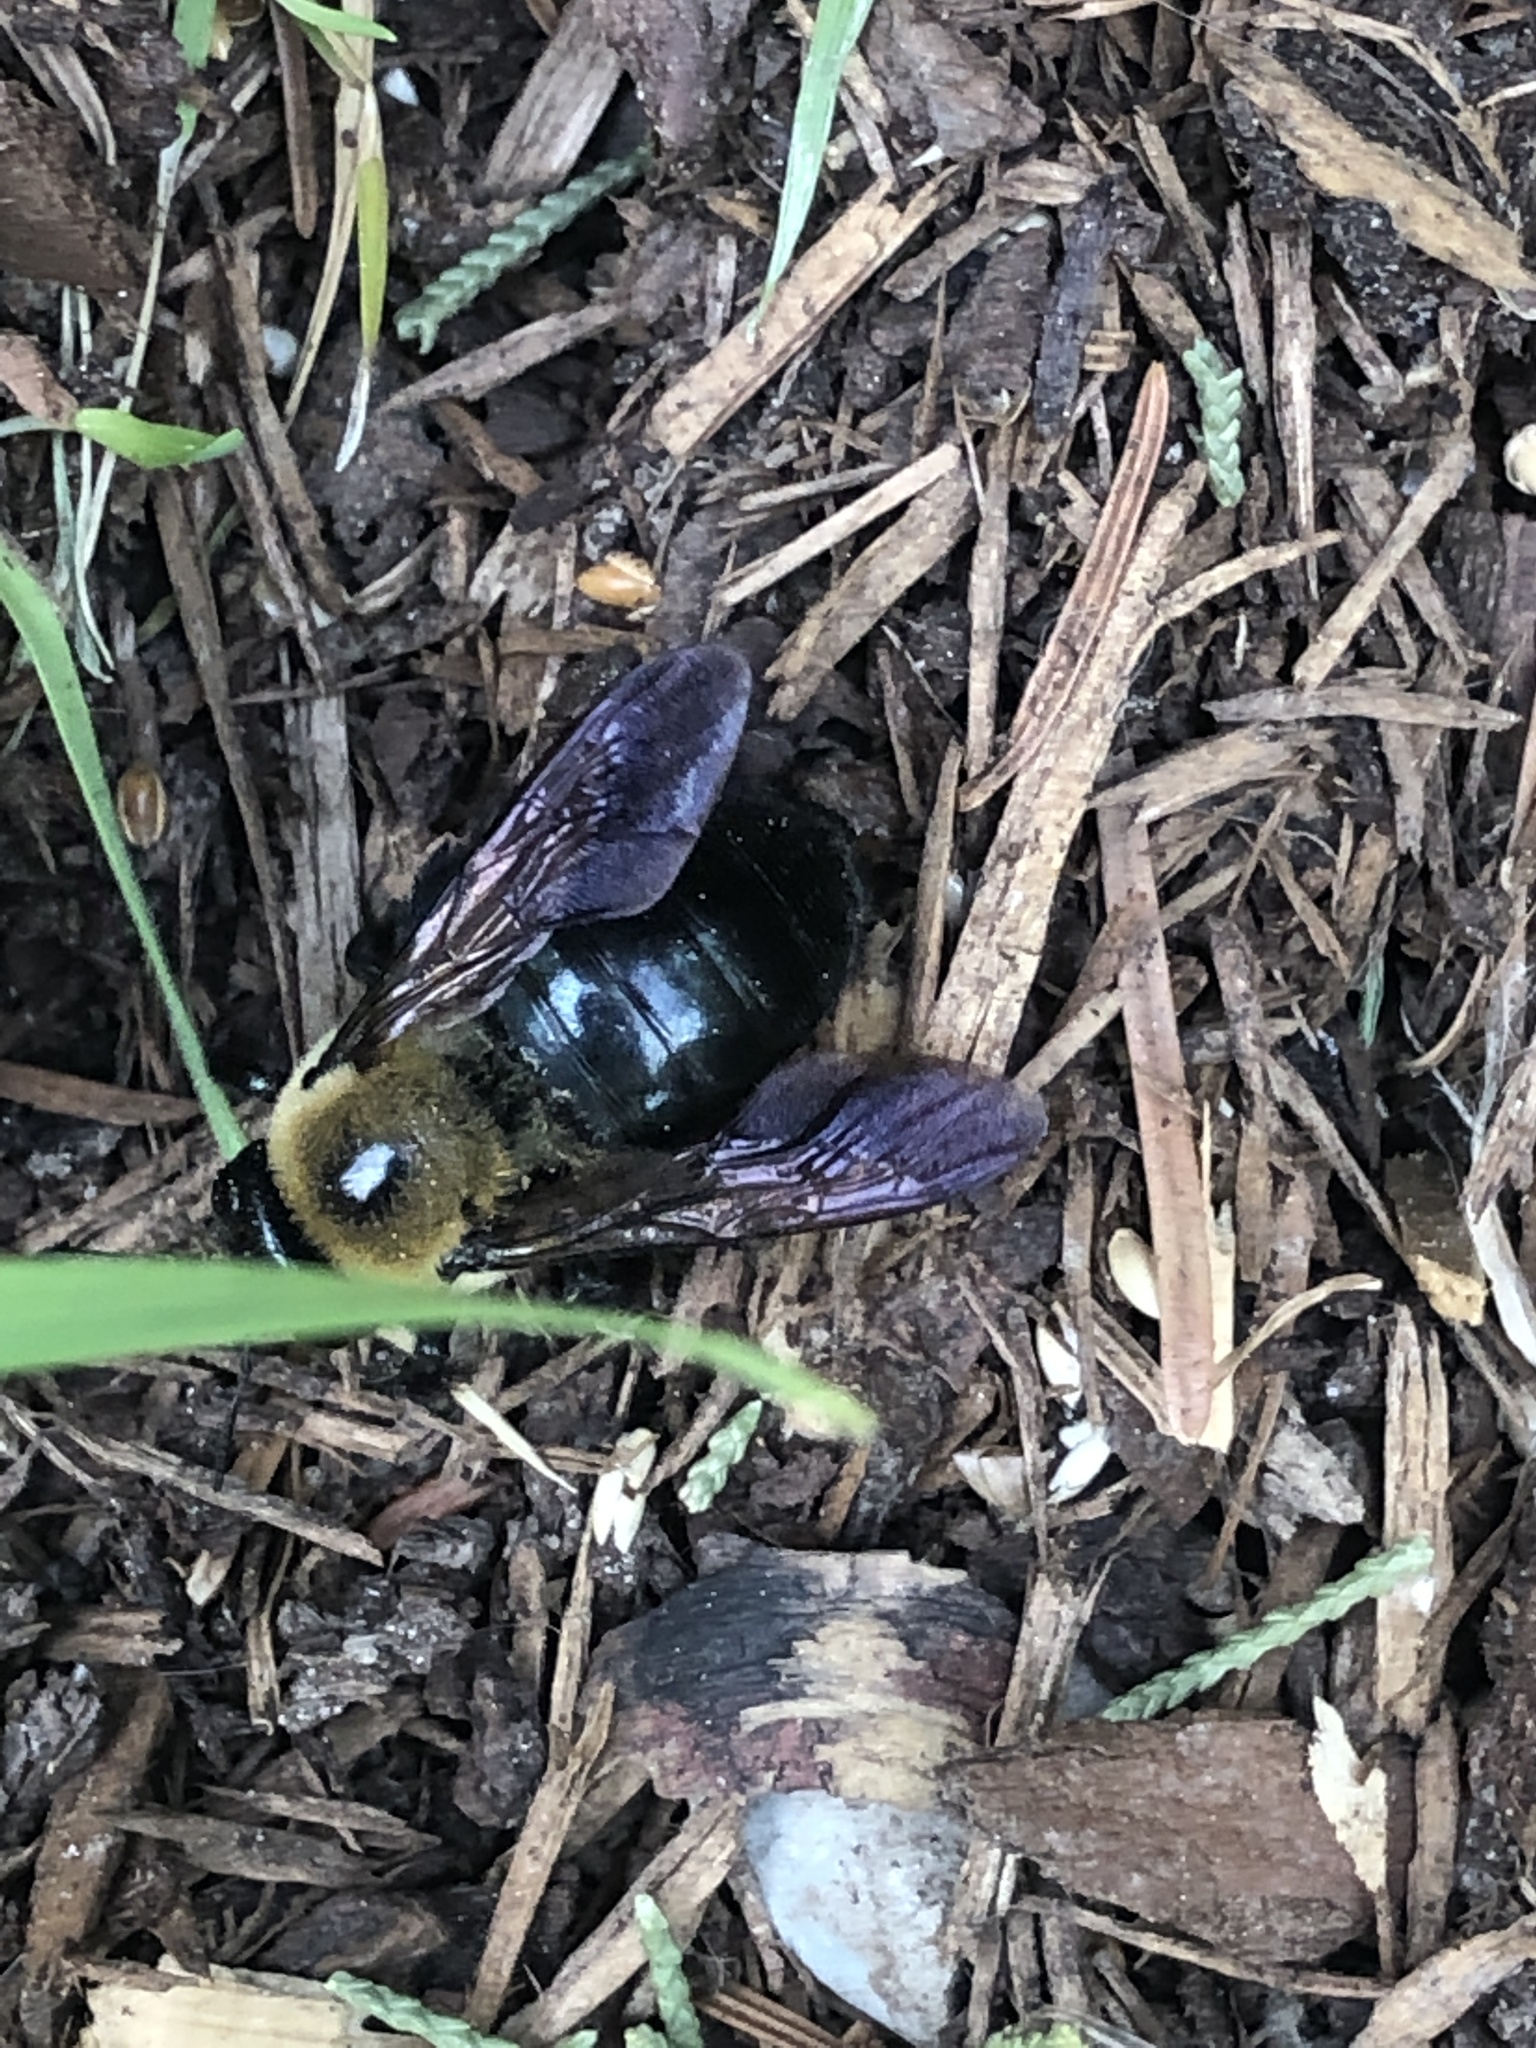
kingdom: Animalia
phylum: Arthropoda
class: Insecta
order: Hymenoptera
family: Apidae
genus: Xylocopa
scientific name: Xylocopa virginica
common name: Carpenter bee
